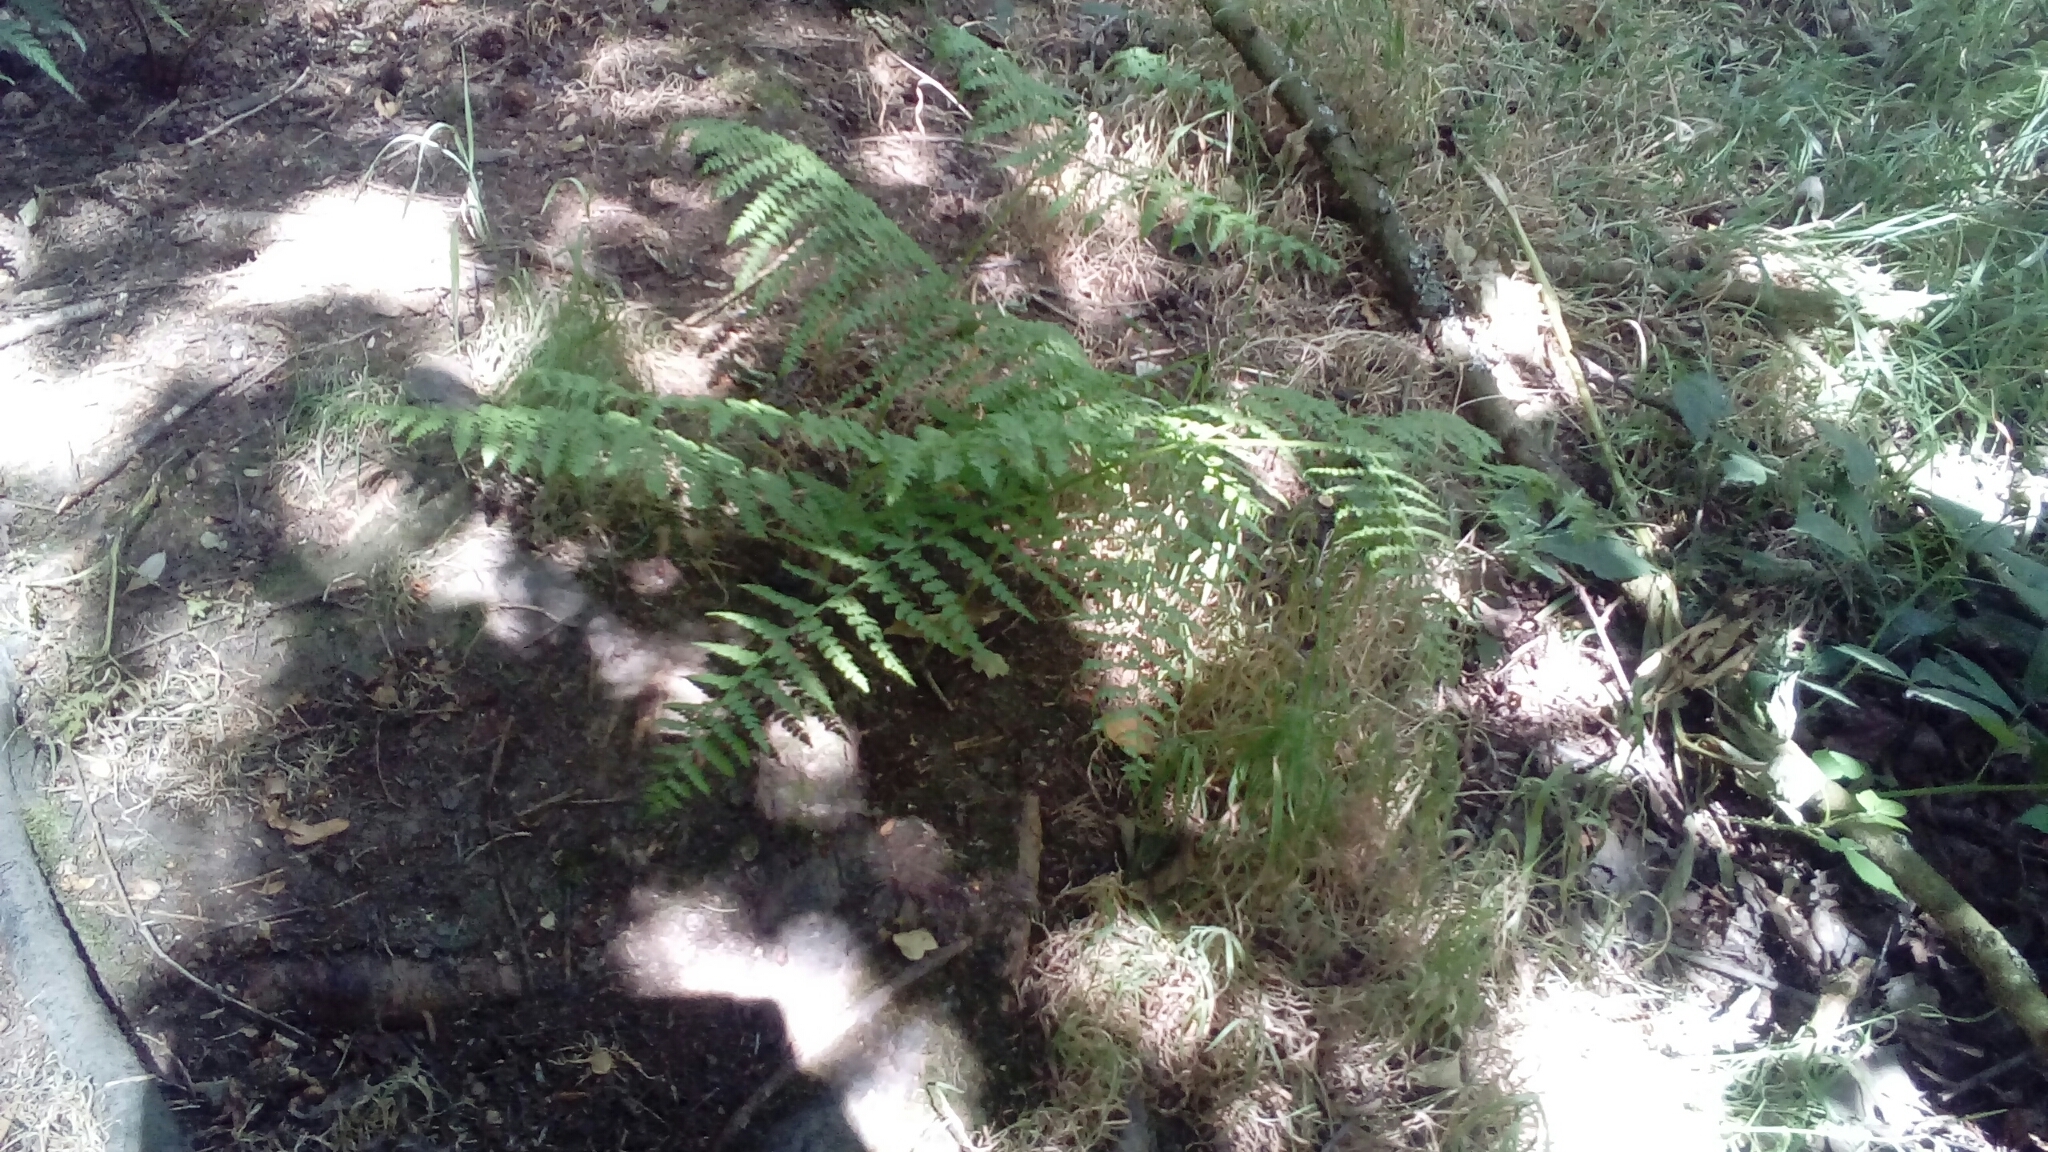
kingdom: Plantae
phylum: Tracheophyta
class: Polypodiopsida
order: Polypodiales
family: Dennstaedtiaceae
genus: Pteridium
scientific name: Pteridium aquilinum
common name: Bracken
